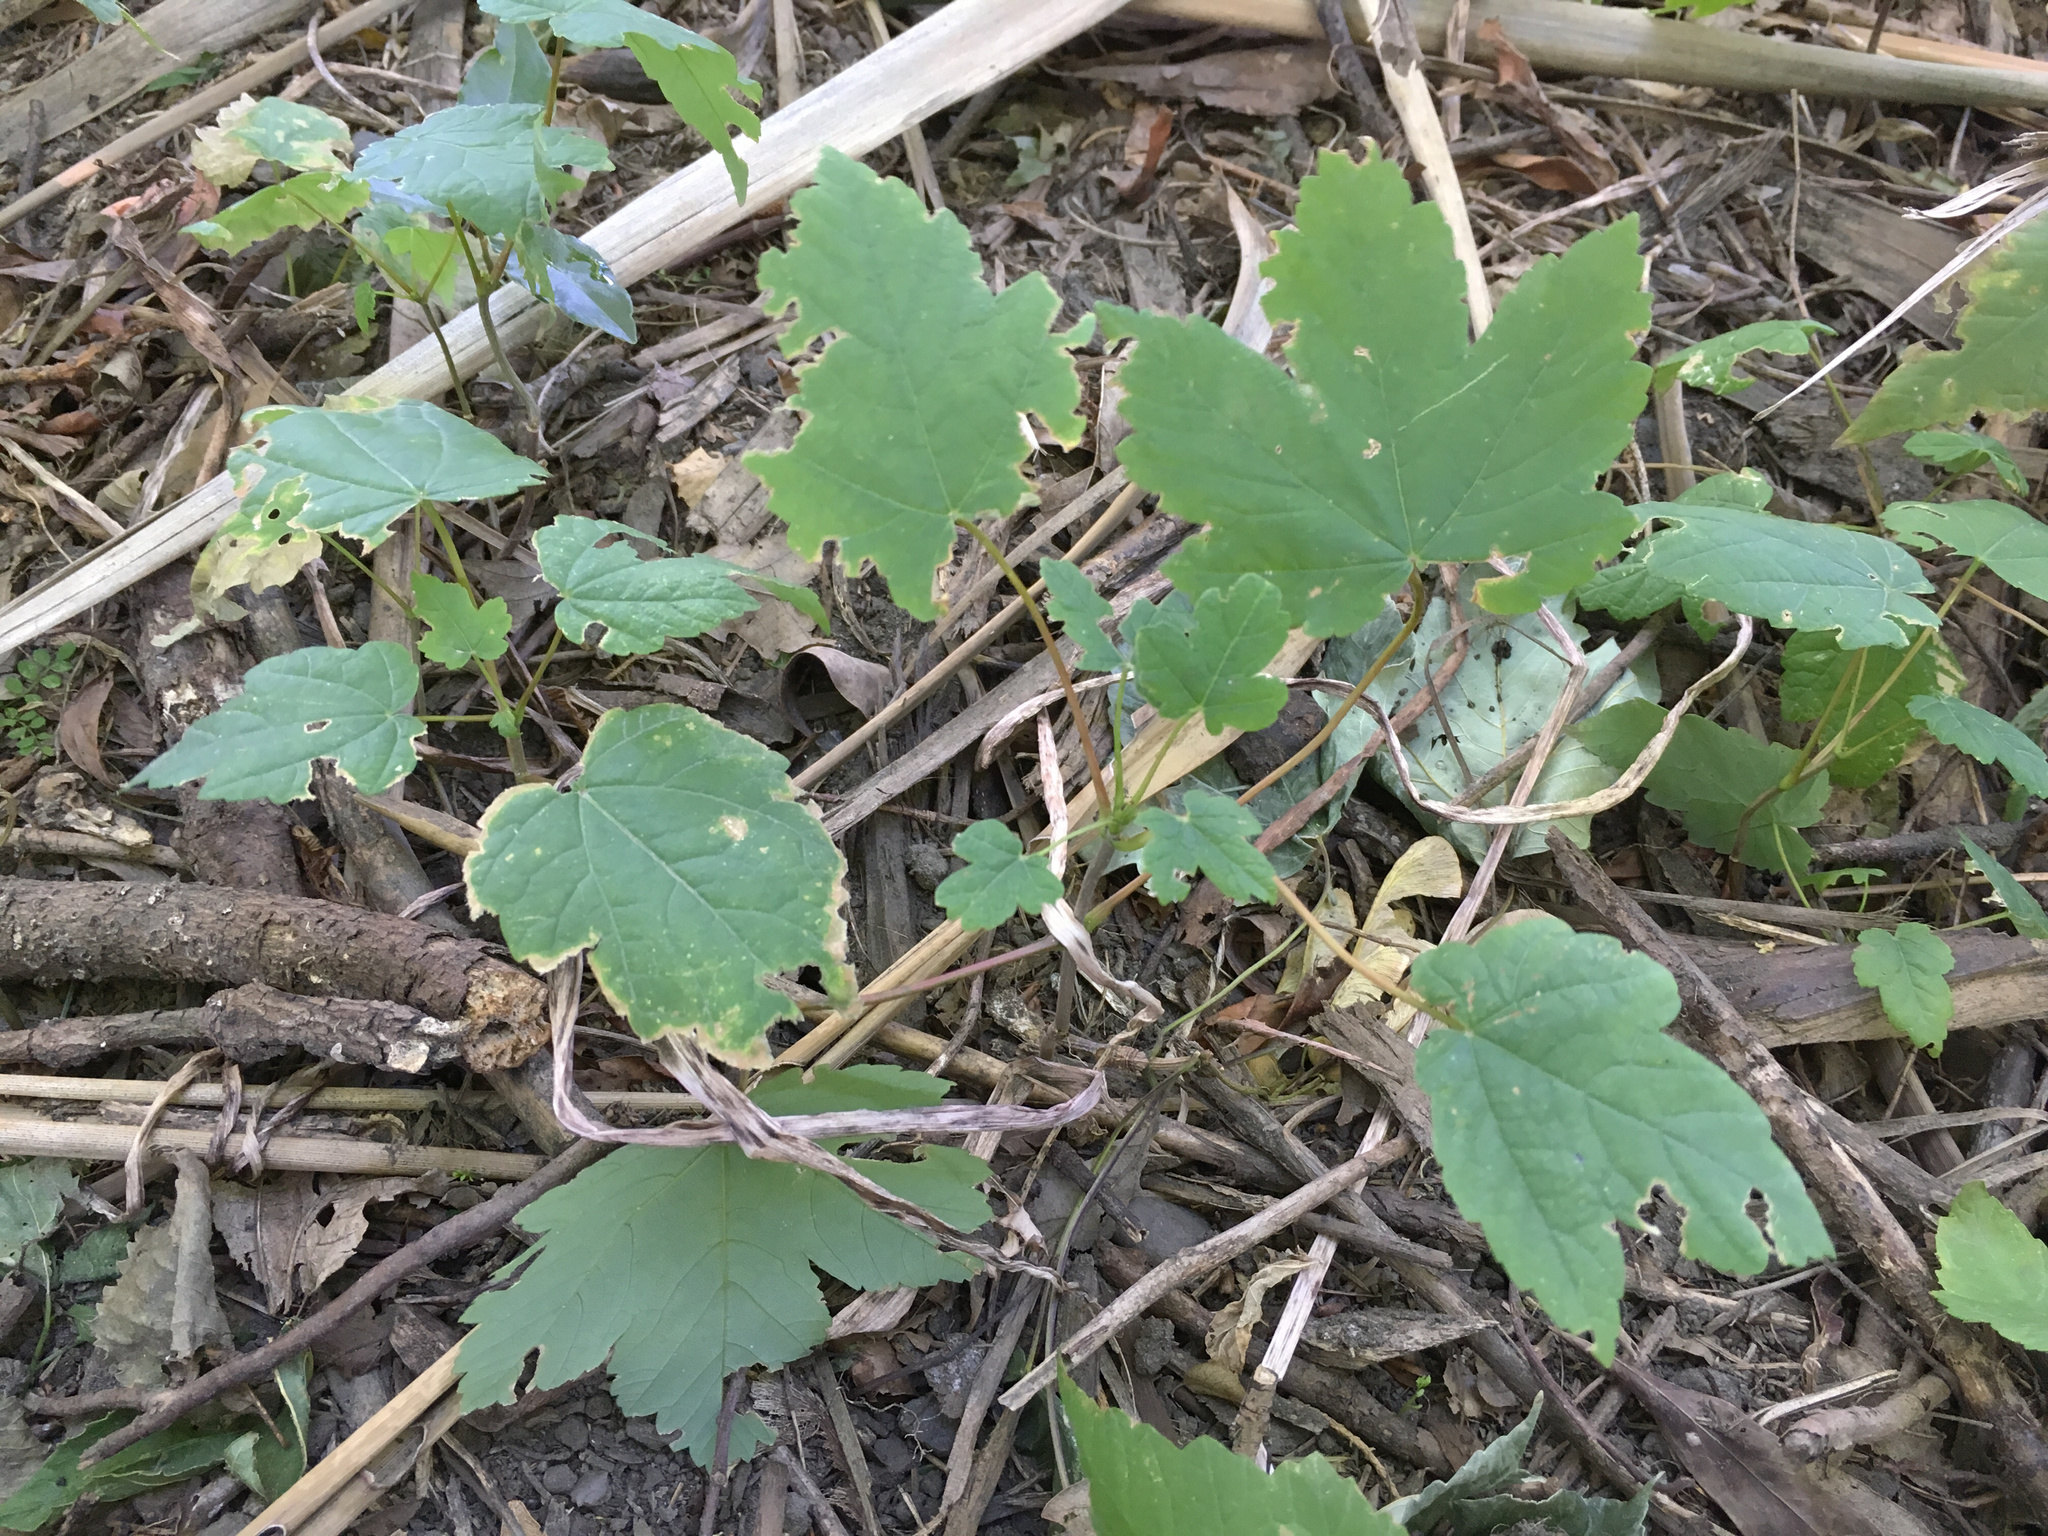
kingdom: Plantae
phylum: Tracheophyta
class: Magnoliopsida
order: Sapindales
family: Sapindaceae
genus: Acer
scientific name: Acer pseudoplatanus
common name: Sycamore
